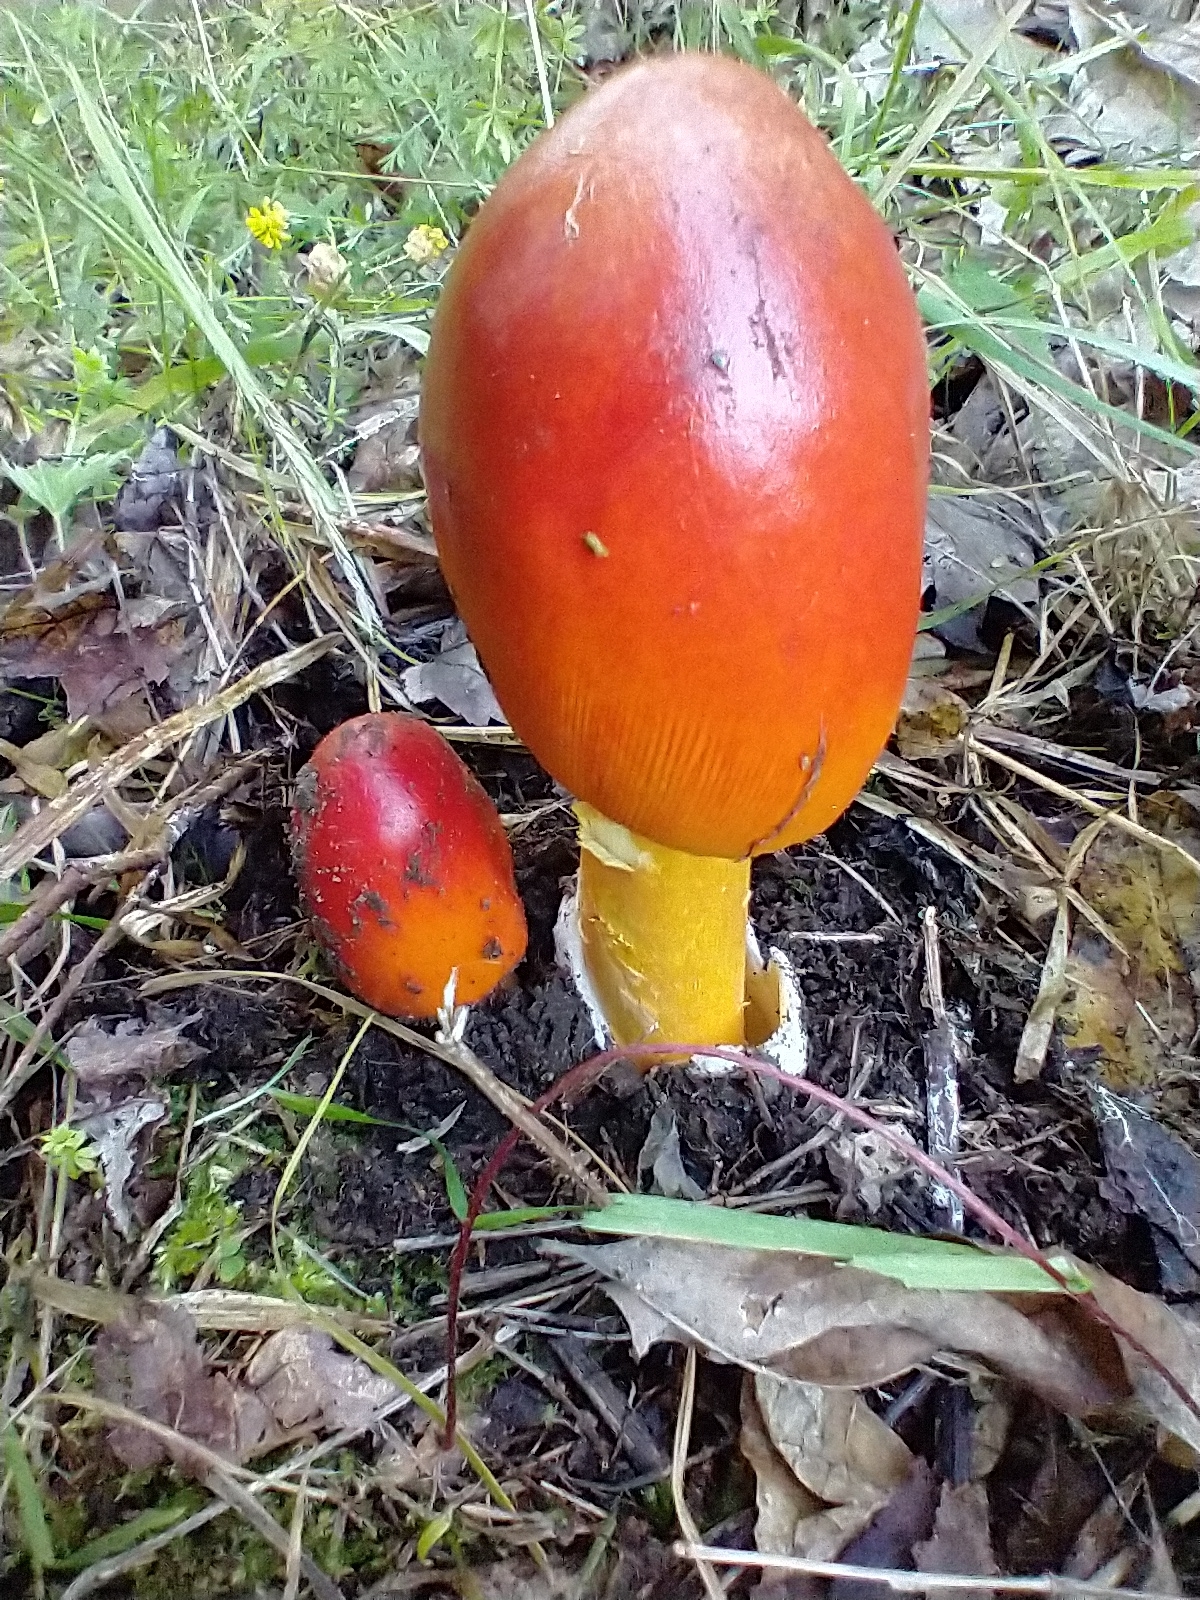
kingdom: Fungi
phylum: Basidiomycota
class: Agaricomycetes
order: Agaricales
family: Amanitaceae
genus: Amanita
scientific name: Amanita jacksonii
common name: Jackson's slender caesar
